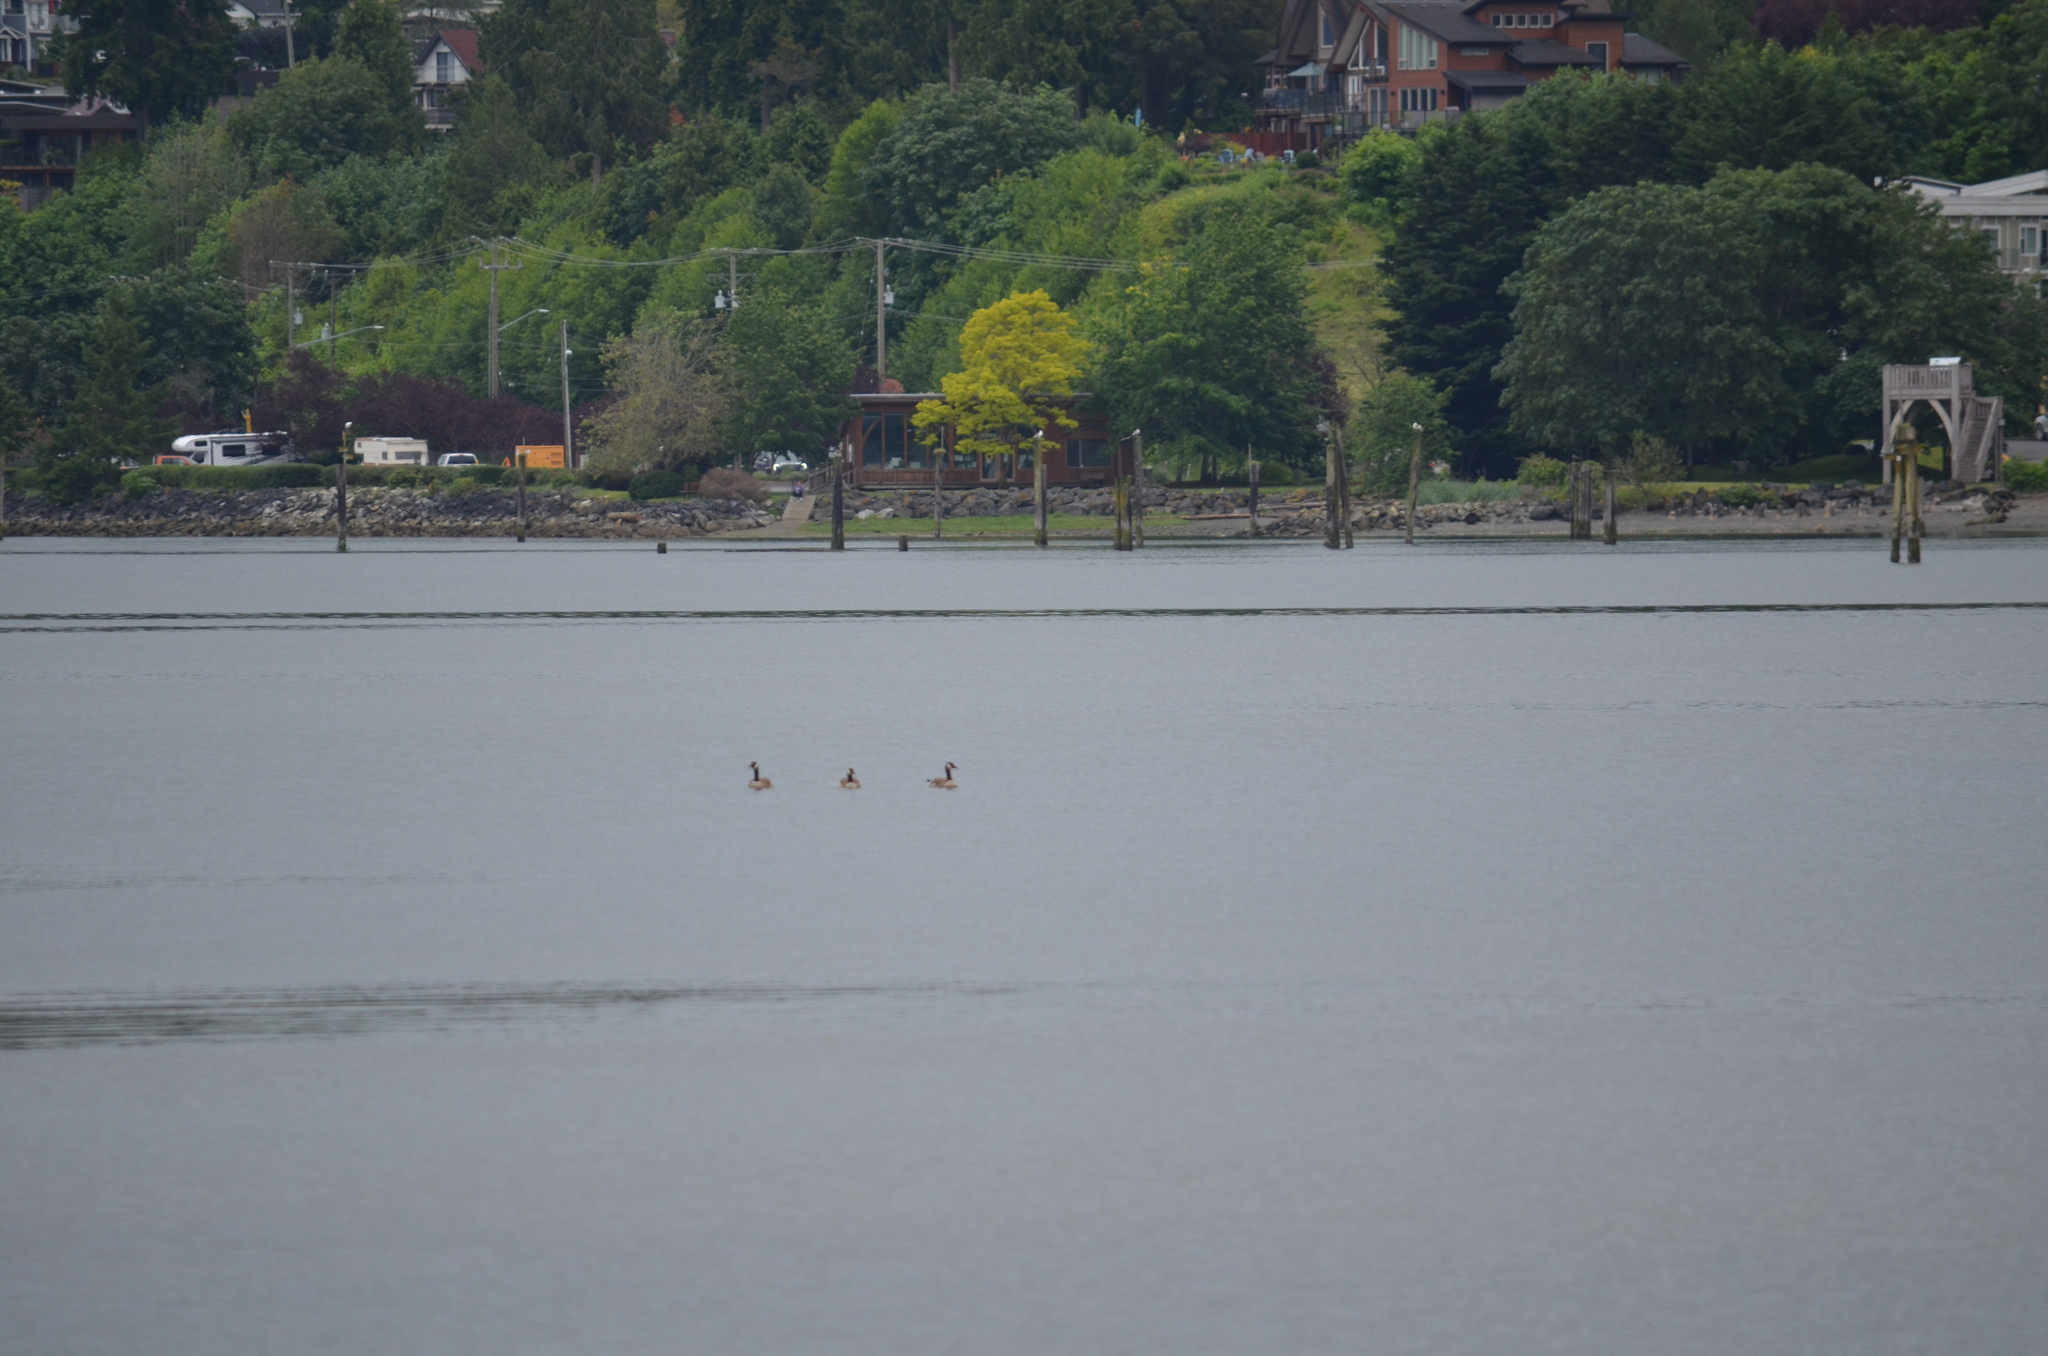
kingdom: Animalia
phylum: Chordata
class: Aves
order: Anseriformes
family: Anatidae
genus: Branta
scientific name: Branta canadensis
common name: Canada goose
